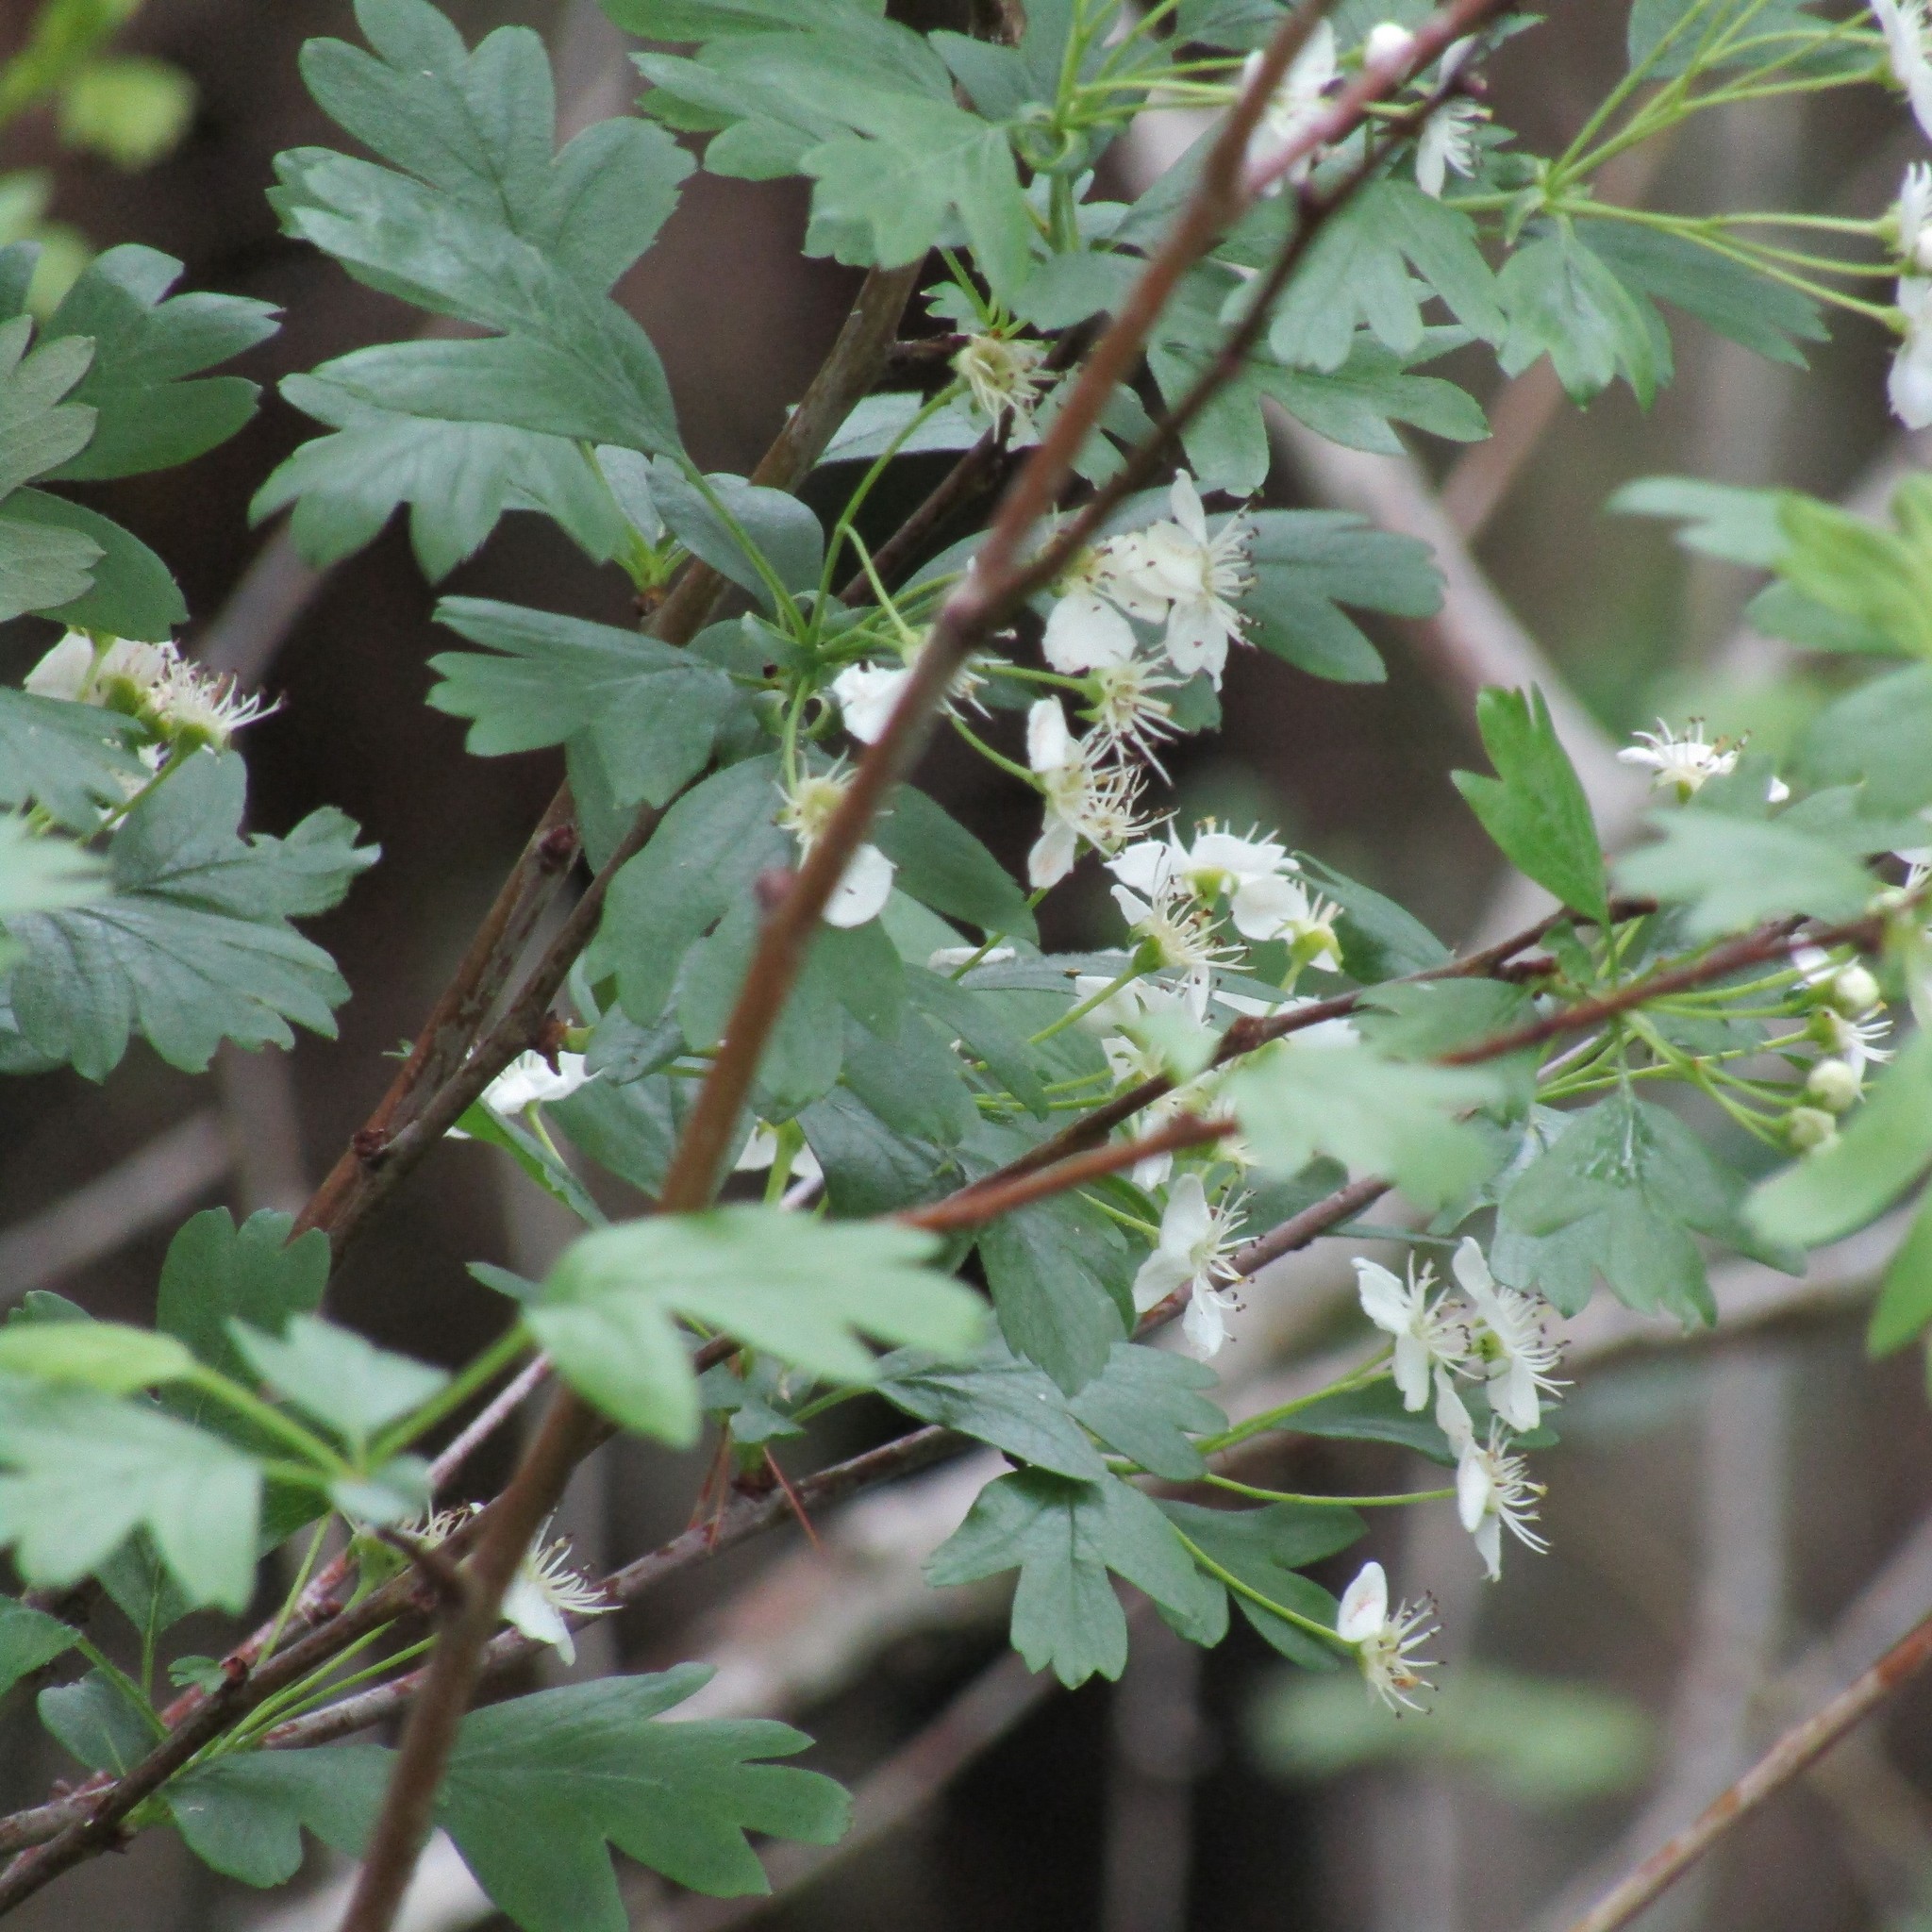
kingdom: Plantae
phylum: Tracheophyta
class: Magnoliopsida
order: Rosales
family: Rosaceae
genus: Crataegus
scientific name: Crataegus monogyna
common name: Hawthorn
